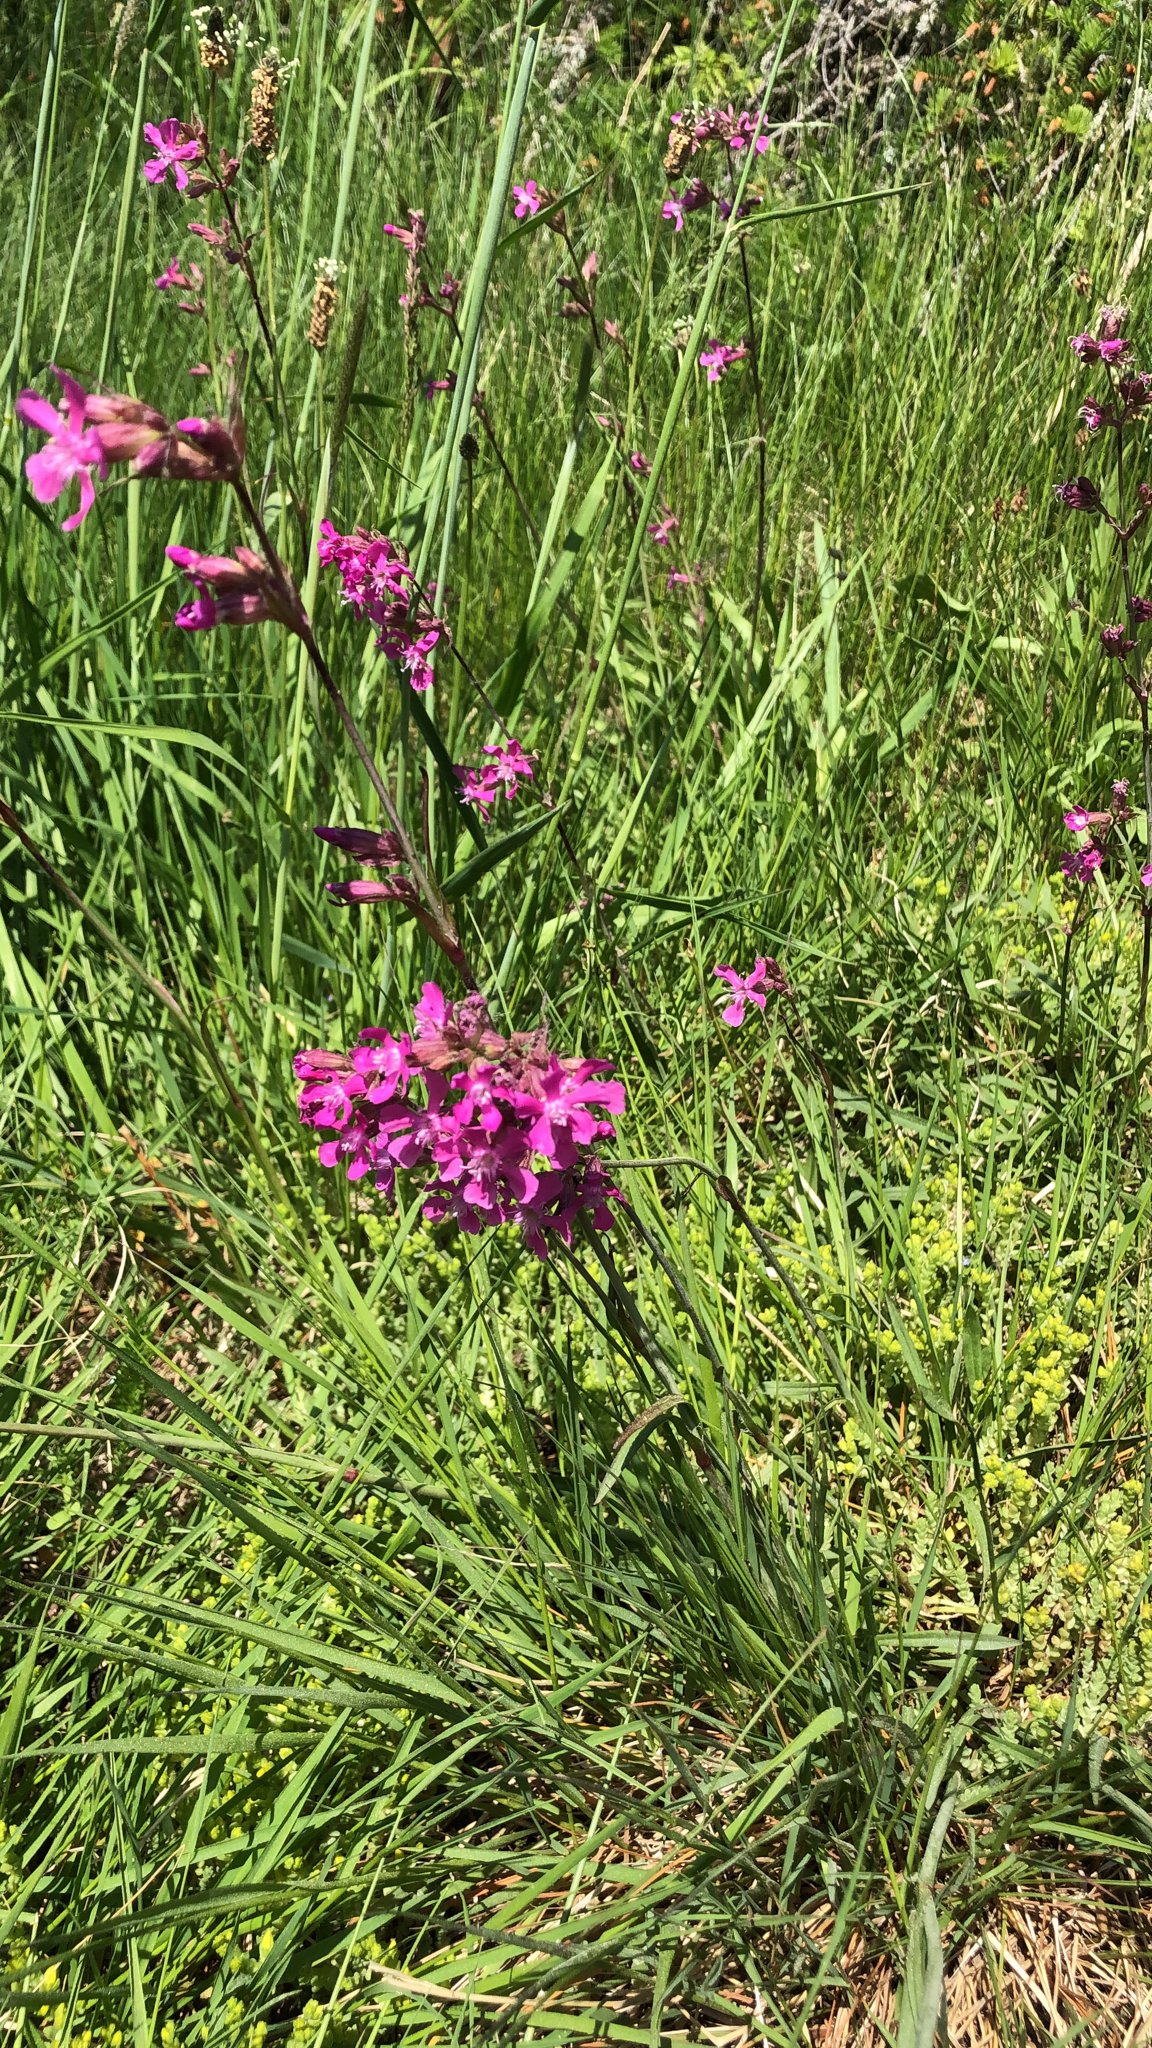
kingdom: Plantae
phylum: Tracheophyta
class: Magnoliopsida
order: Caryophyllales
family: Caryophyllaceae
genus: Viscaria
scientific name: Viscaria vulgaris
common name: Clammy campion
